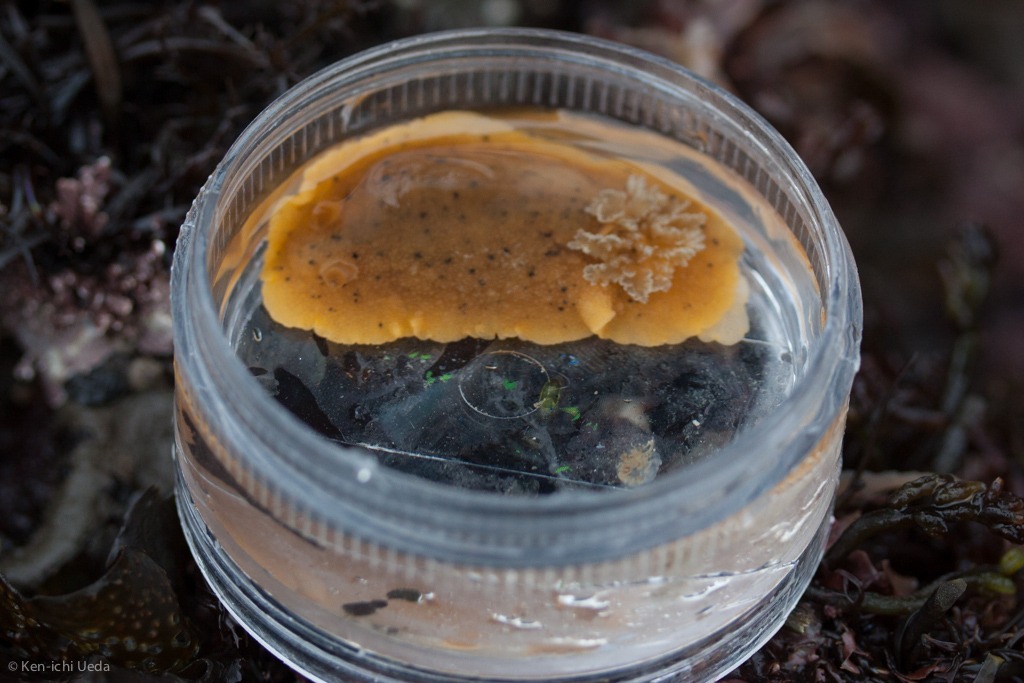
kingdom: Animalia
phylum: Mollusca
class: Gastropoda
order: Nudibranchia
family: Discodorididae
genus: Geitodoris
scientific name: Geitodoris heathi
